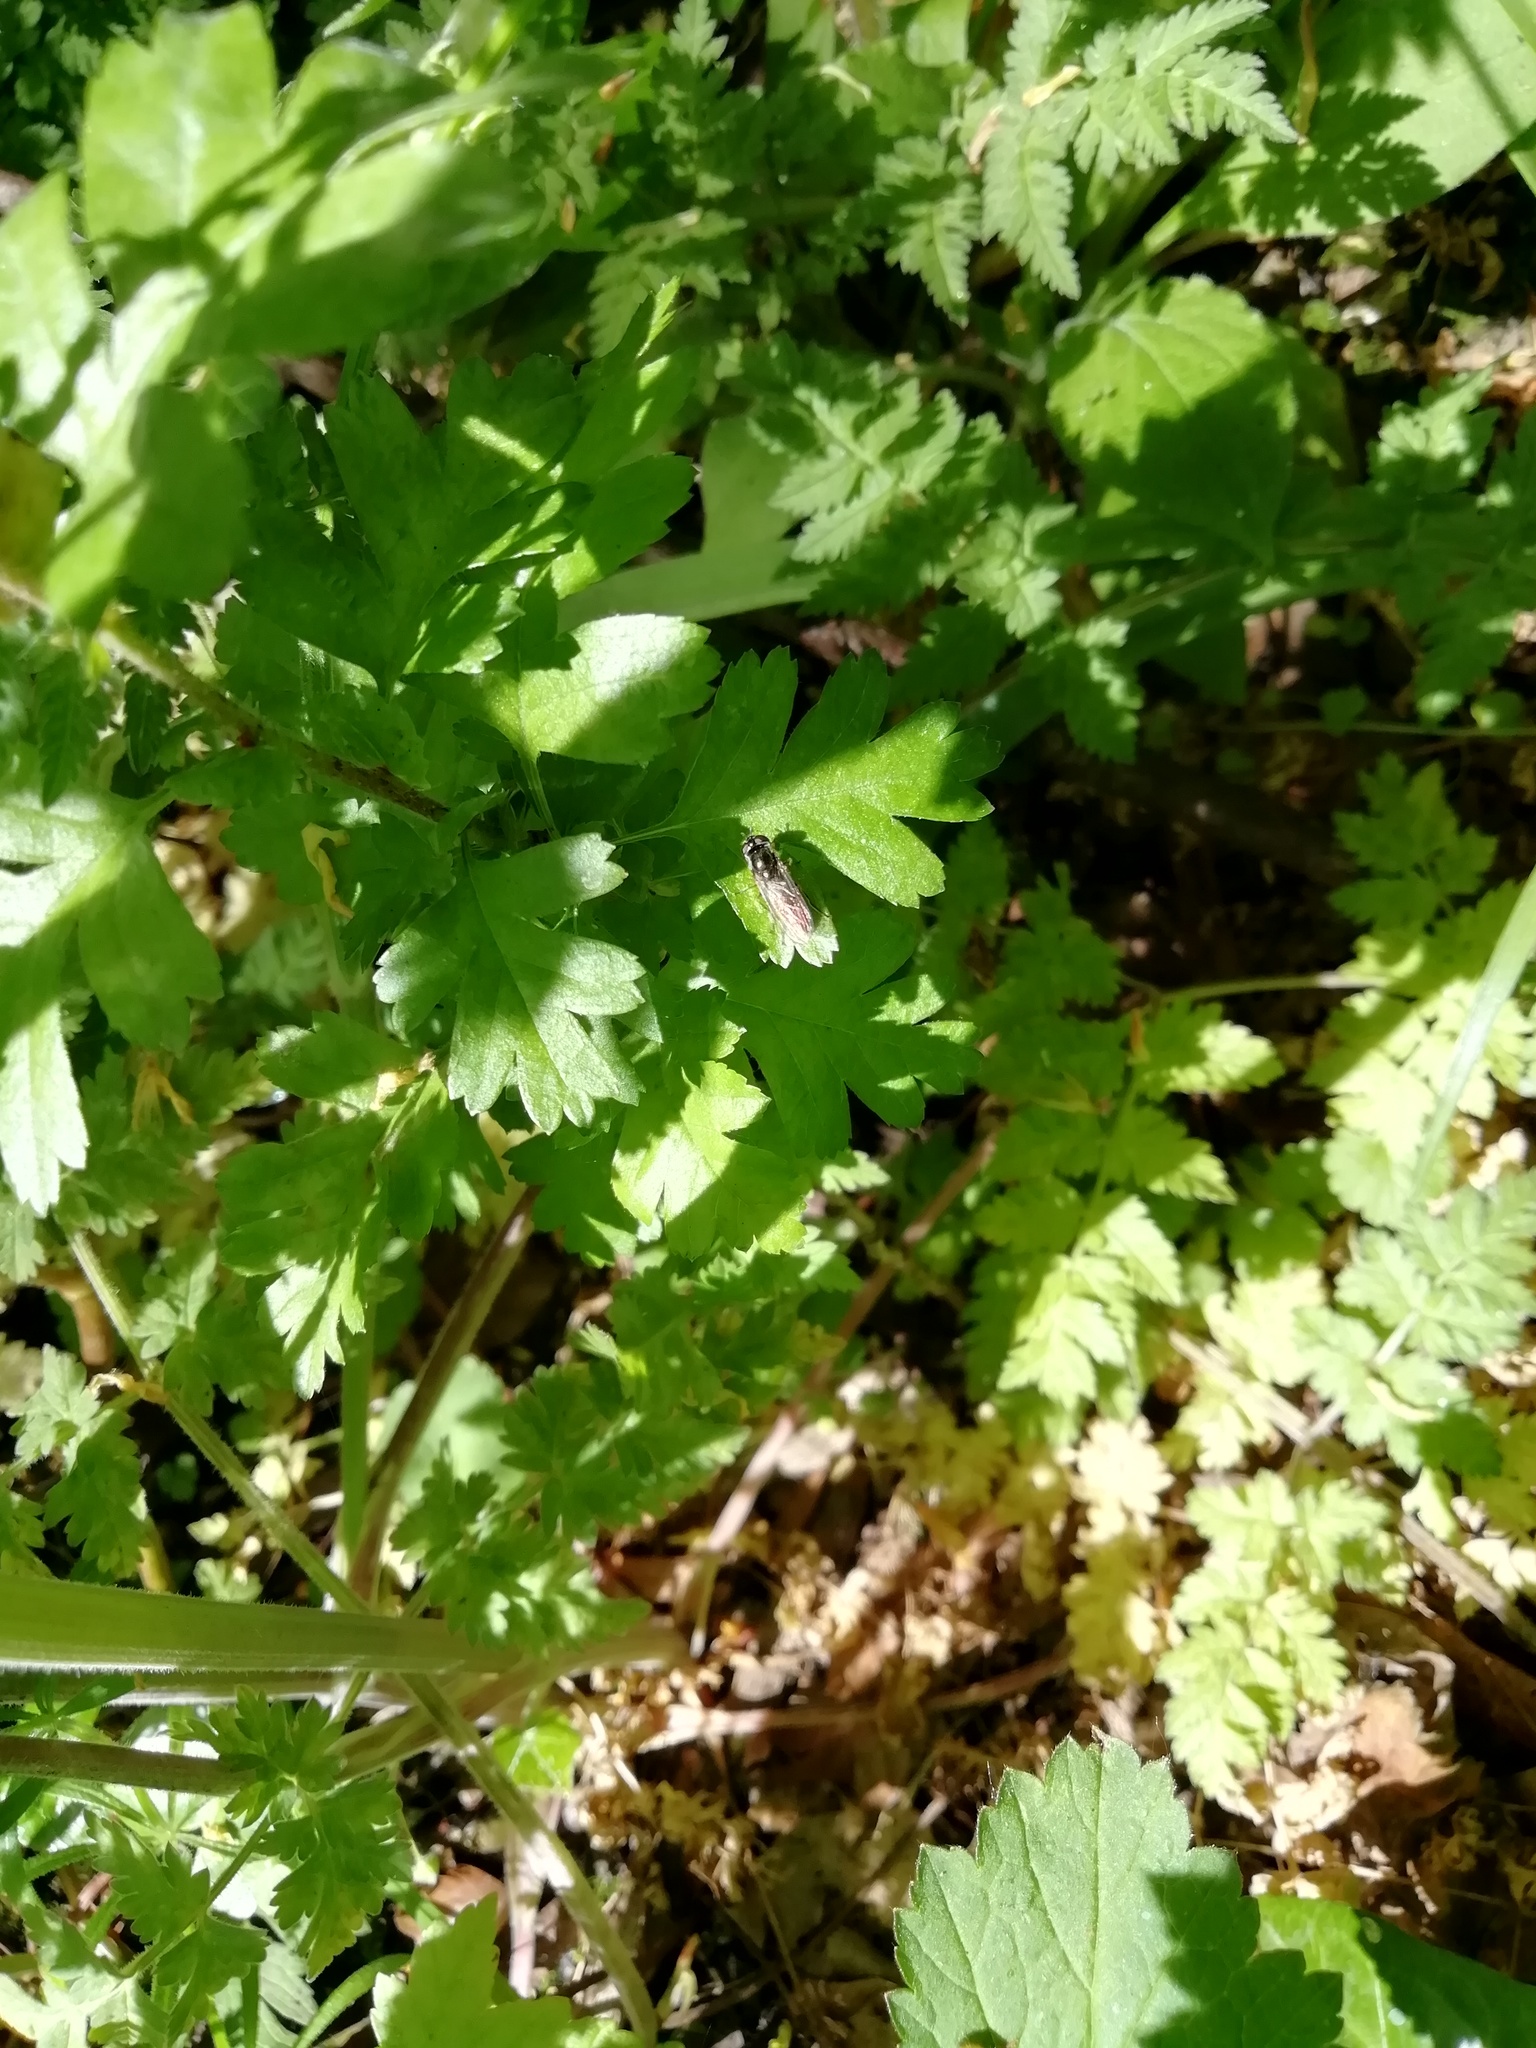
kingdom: Animalia
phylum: Arthropoda
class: Insecta
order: Diptera
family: Syrphidae
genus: Platycheirus
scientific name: Platycheirus
